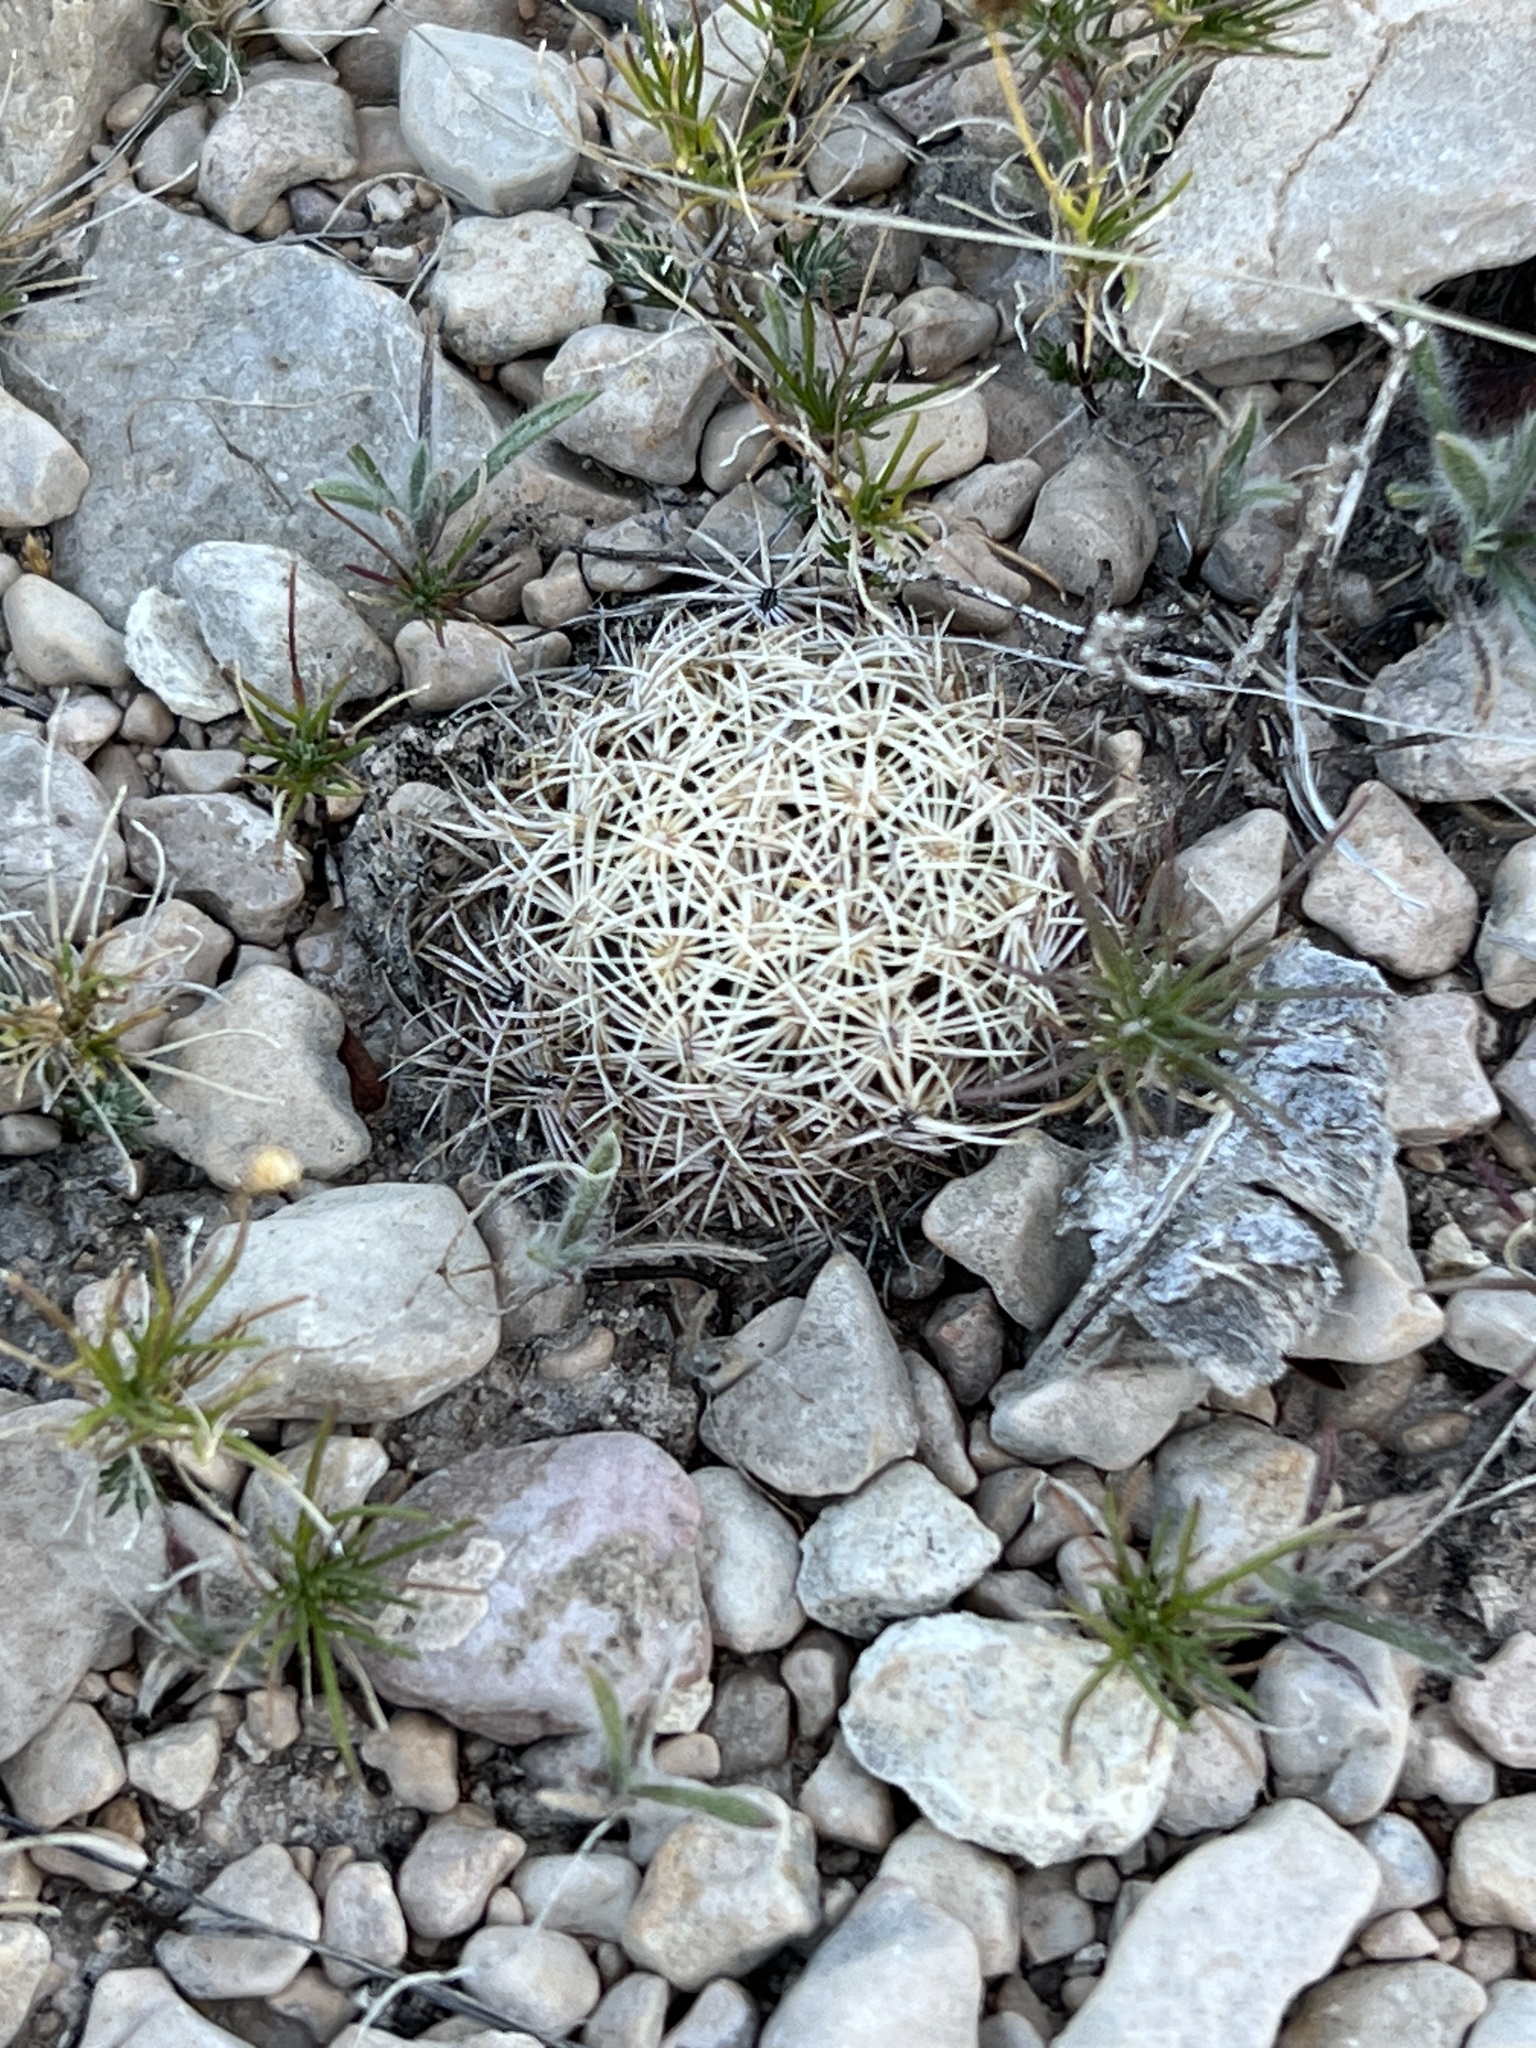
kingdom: Plantae
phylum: Tracheophyta
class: Magnoliopsida
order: Caryophyllales
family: Cactaceae
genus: Coryphantha
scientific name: Coryphantha echinus
